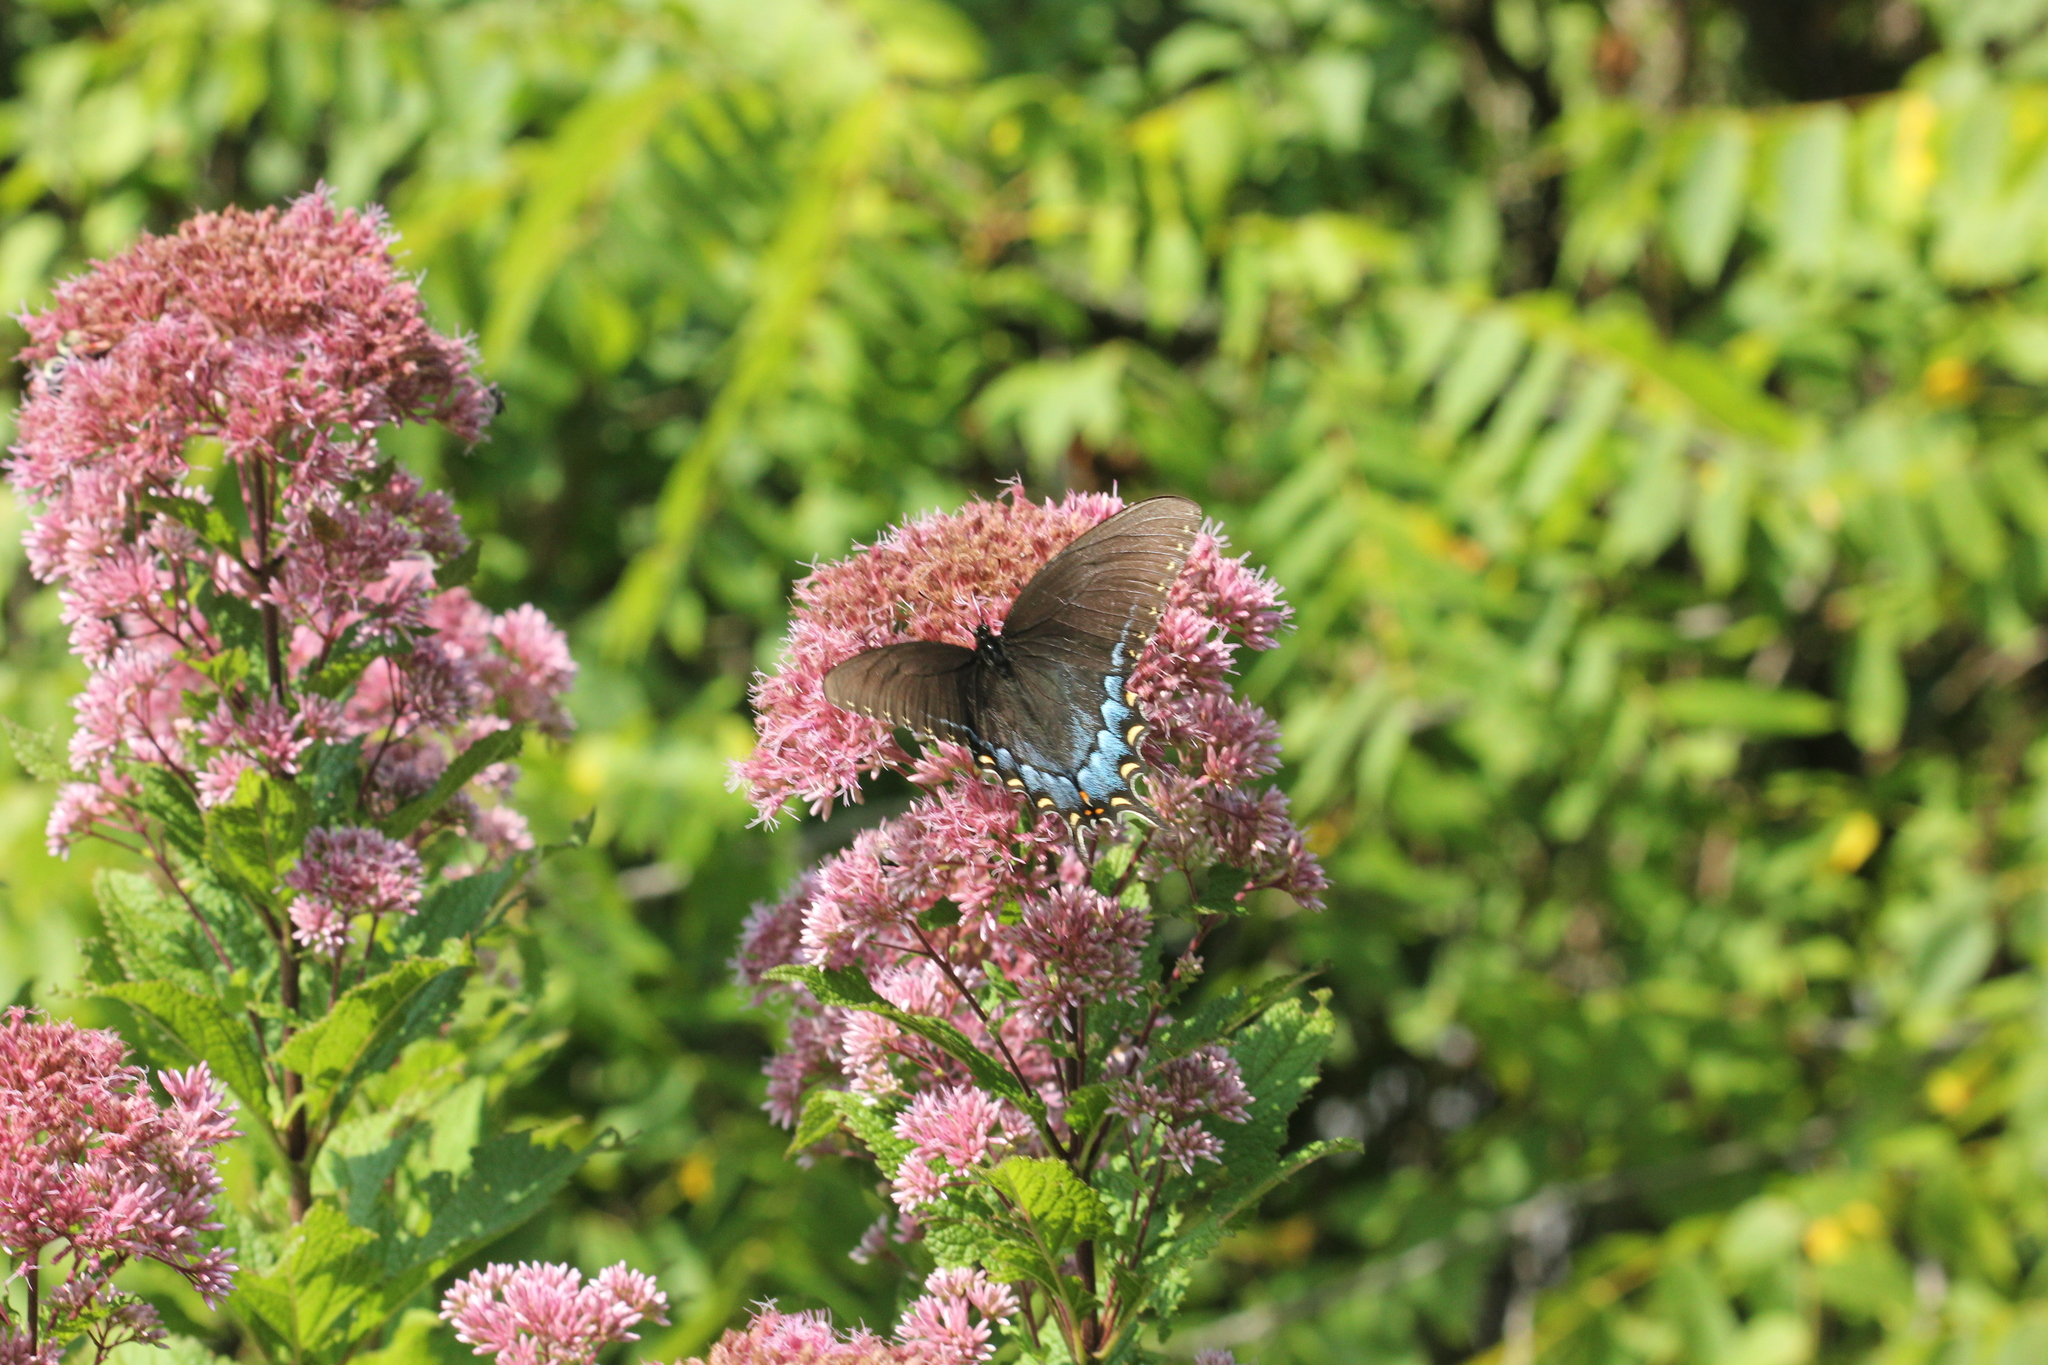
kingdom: Animalia
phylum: Arthropoda
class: Insecta
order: Lepidoptera
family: Papilionidae
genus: Papilio
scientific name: Papilio glaucus
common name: Tiger swallowtail
